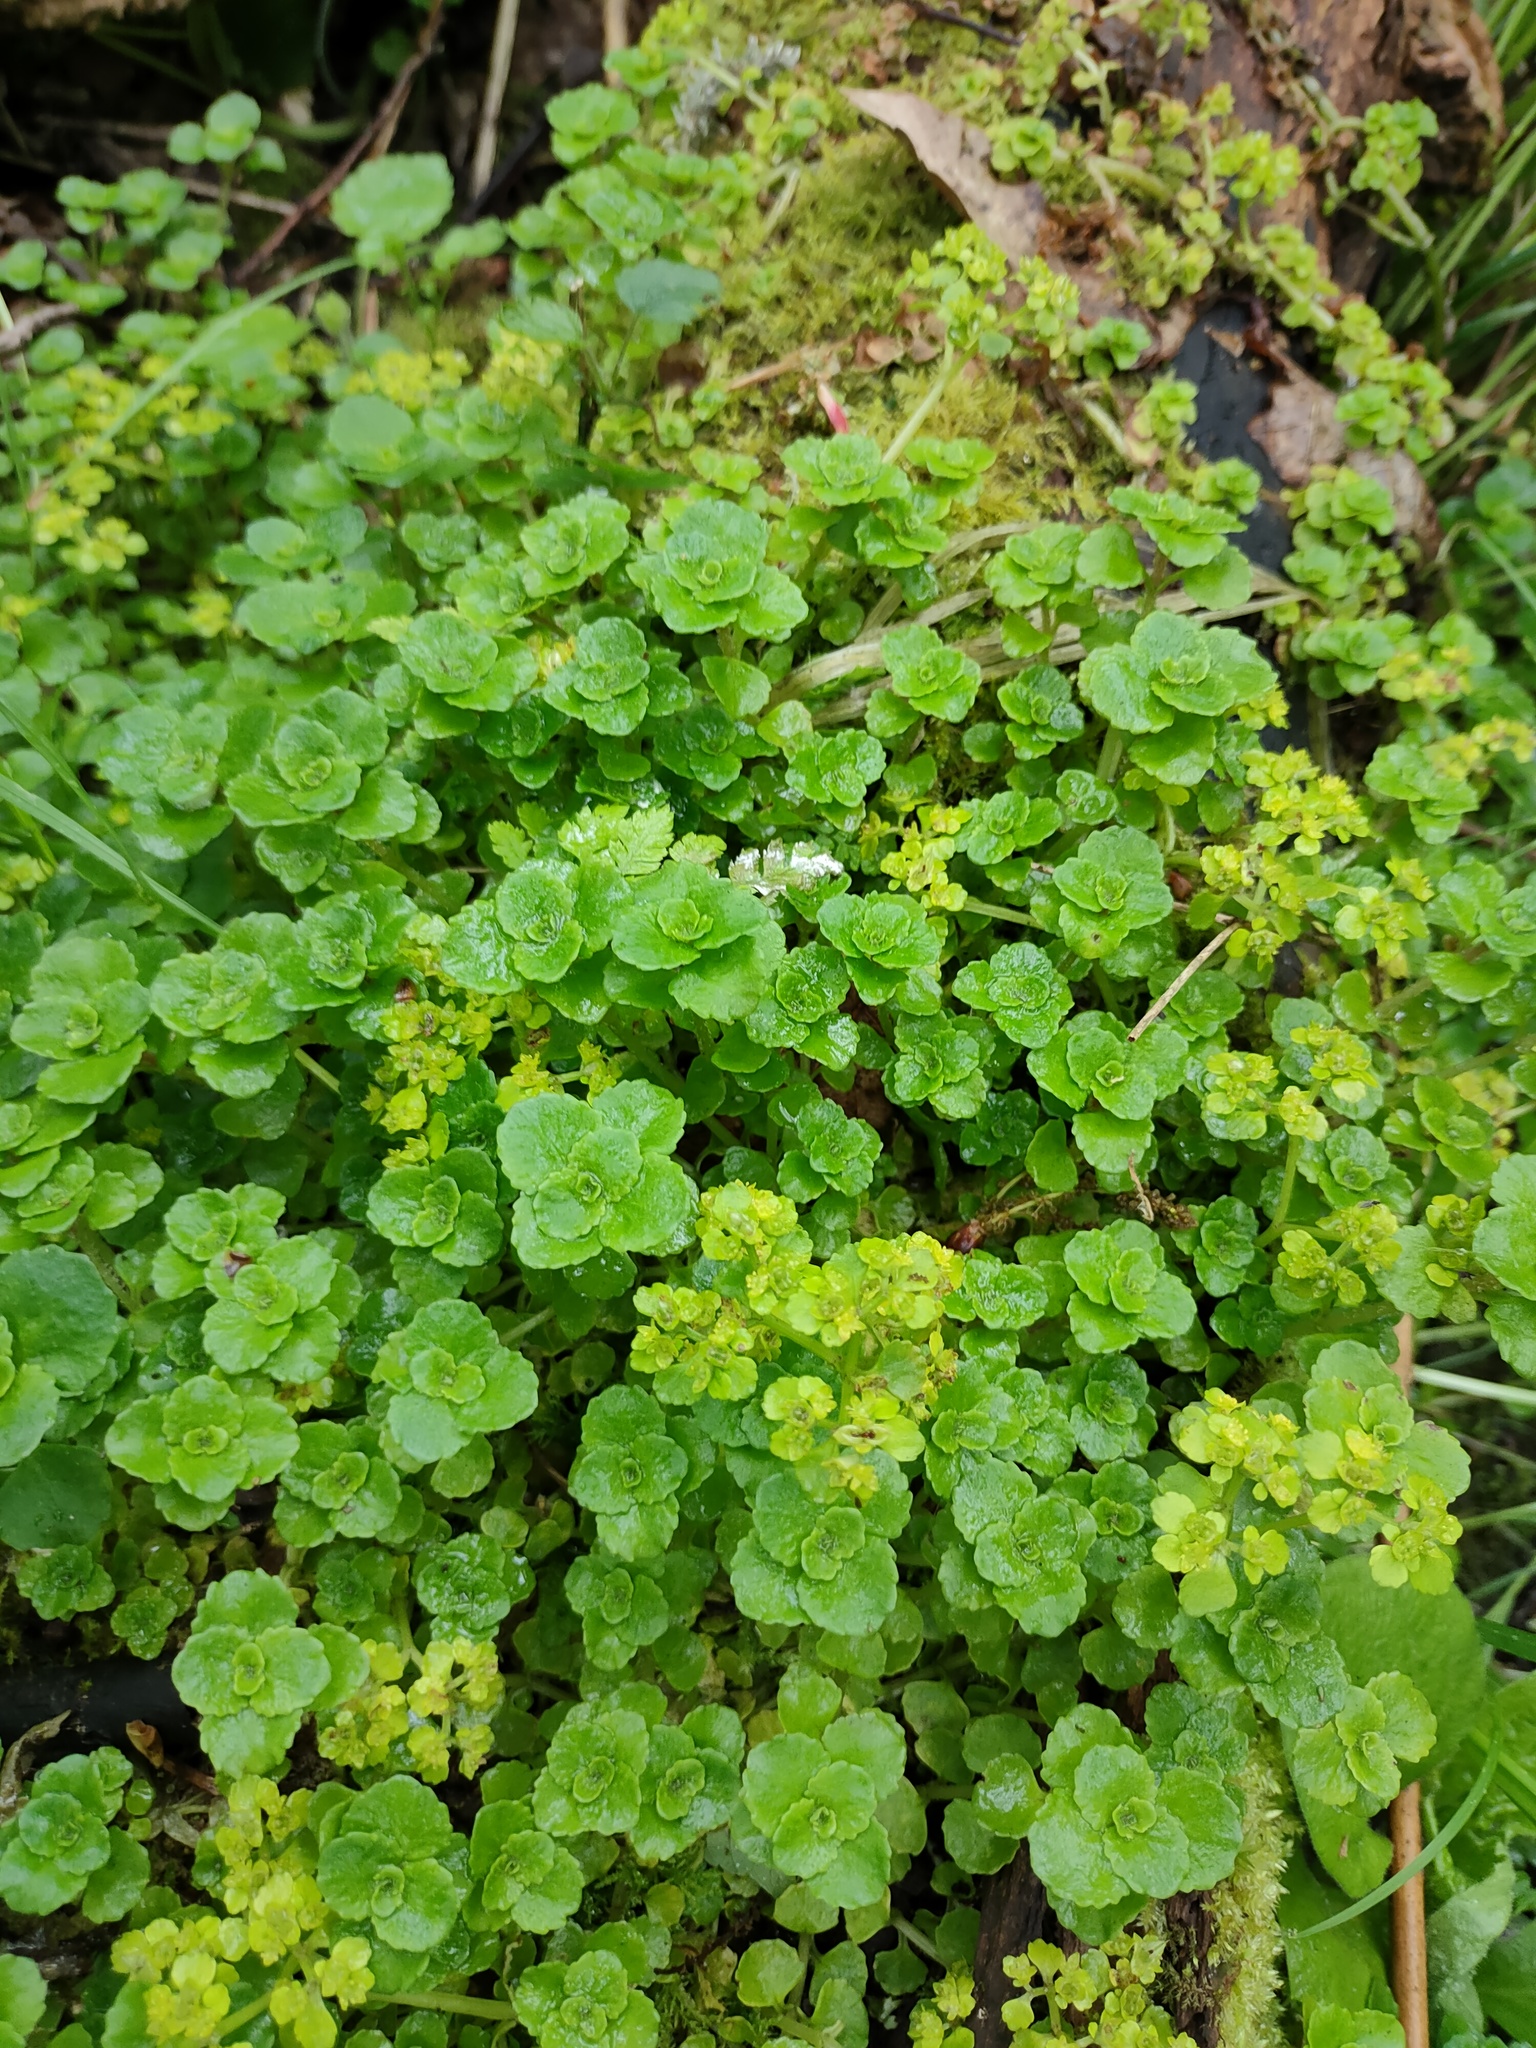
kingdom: Plantae
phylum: Tracheophyta
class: Magnoliopsida
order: Saxifragales
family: Saxifragaceae
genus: Chrysosplenium
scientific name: Chrysosplenium oppositifolium
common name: Opposite-leaved golden-saxifrage
